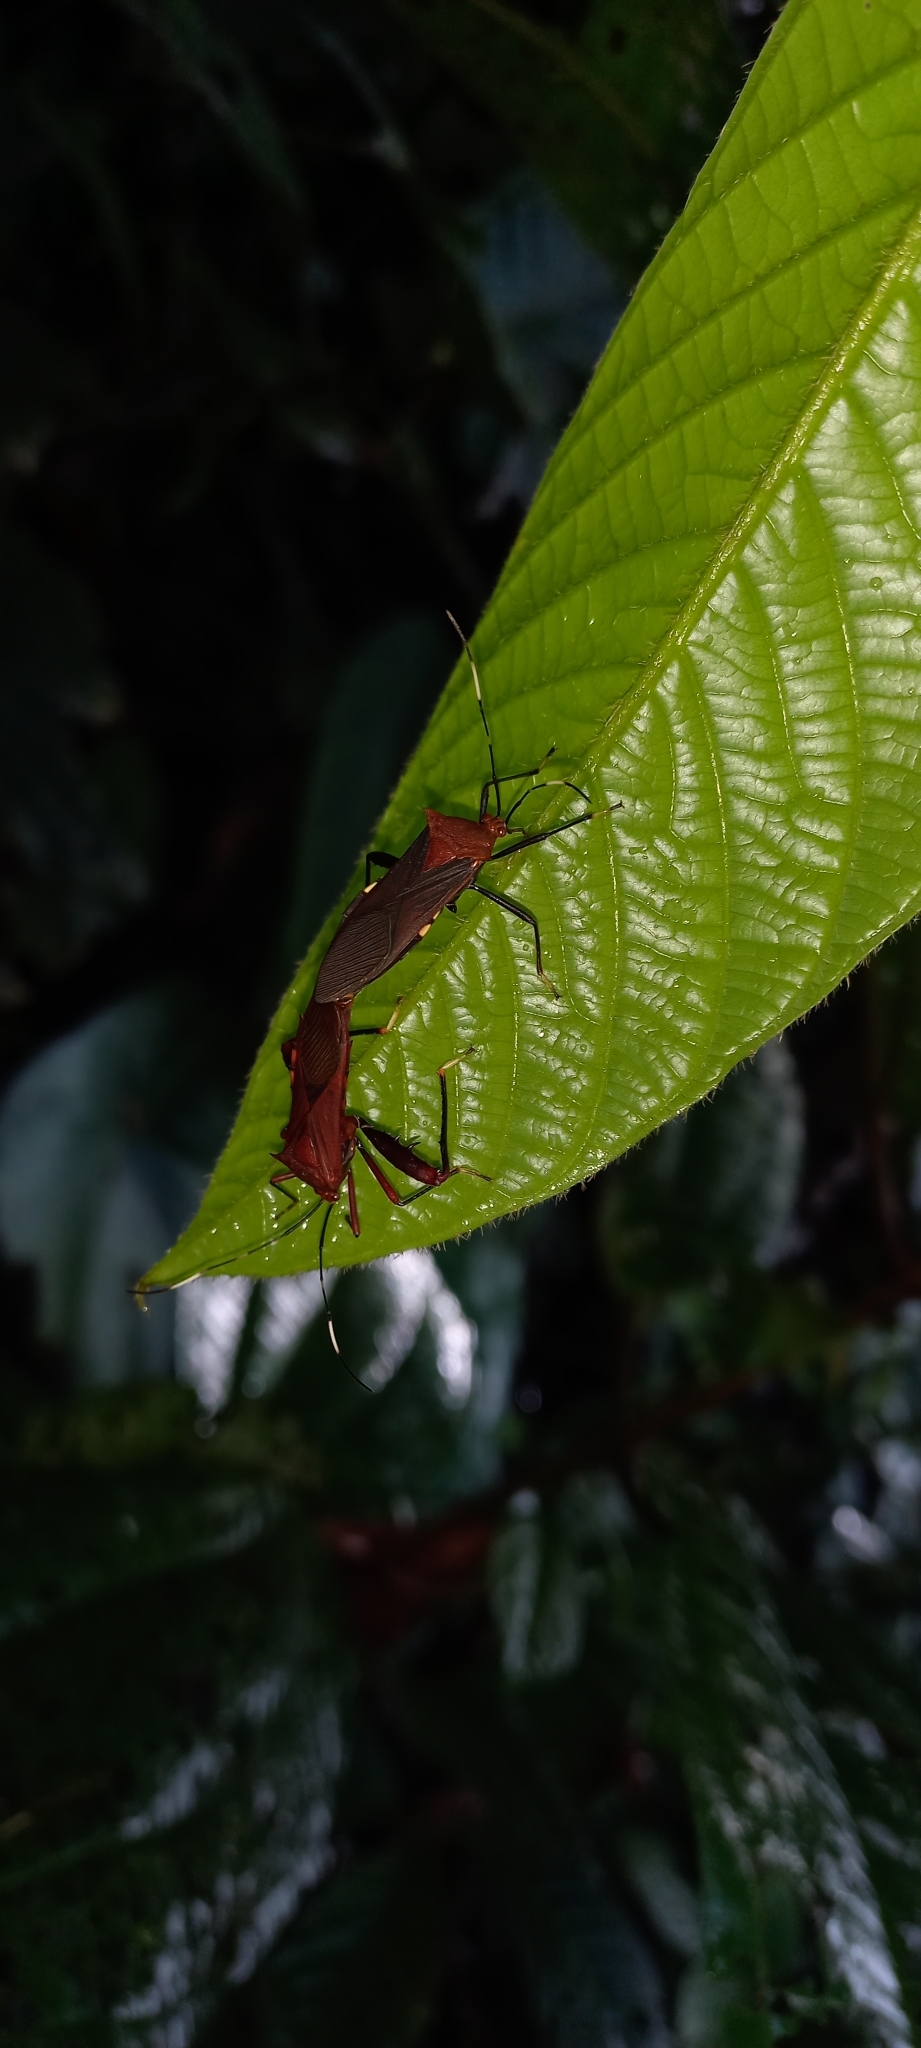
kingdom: Animalia
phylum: Arthropoda
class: Insecta
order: Hemiptera
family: Coreidae
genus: Nematopus
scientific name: Nematopus cribratus
